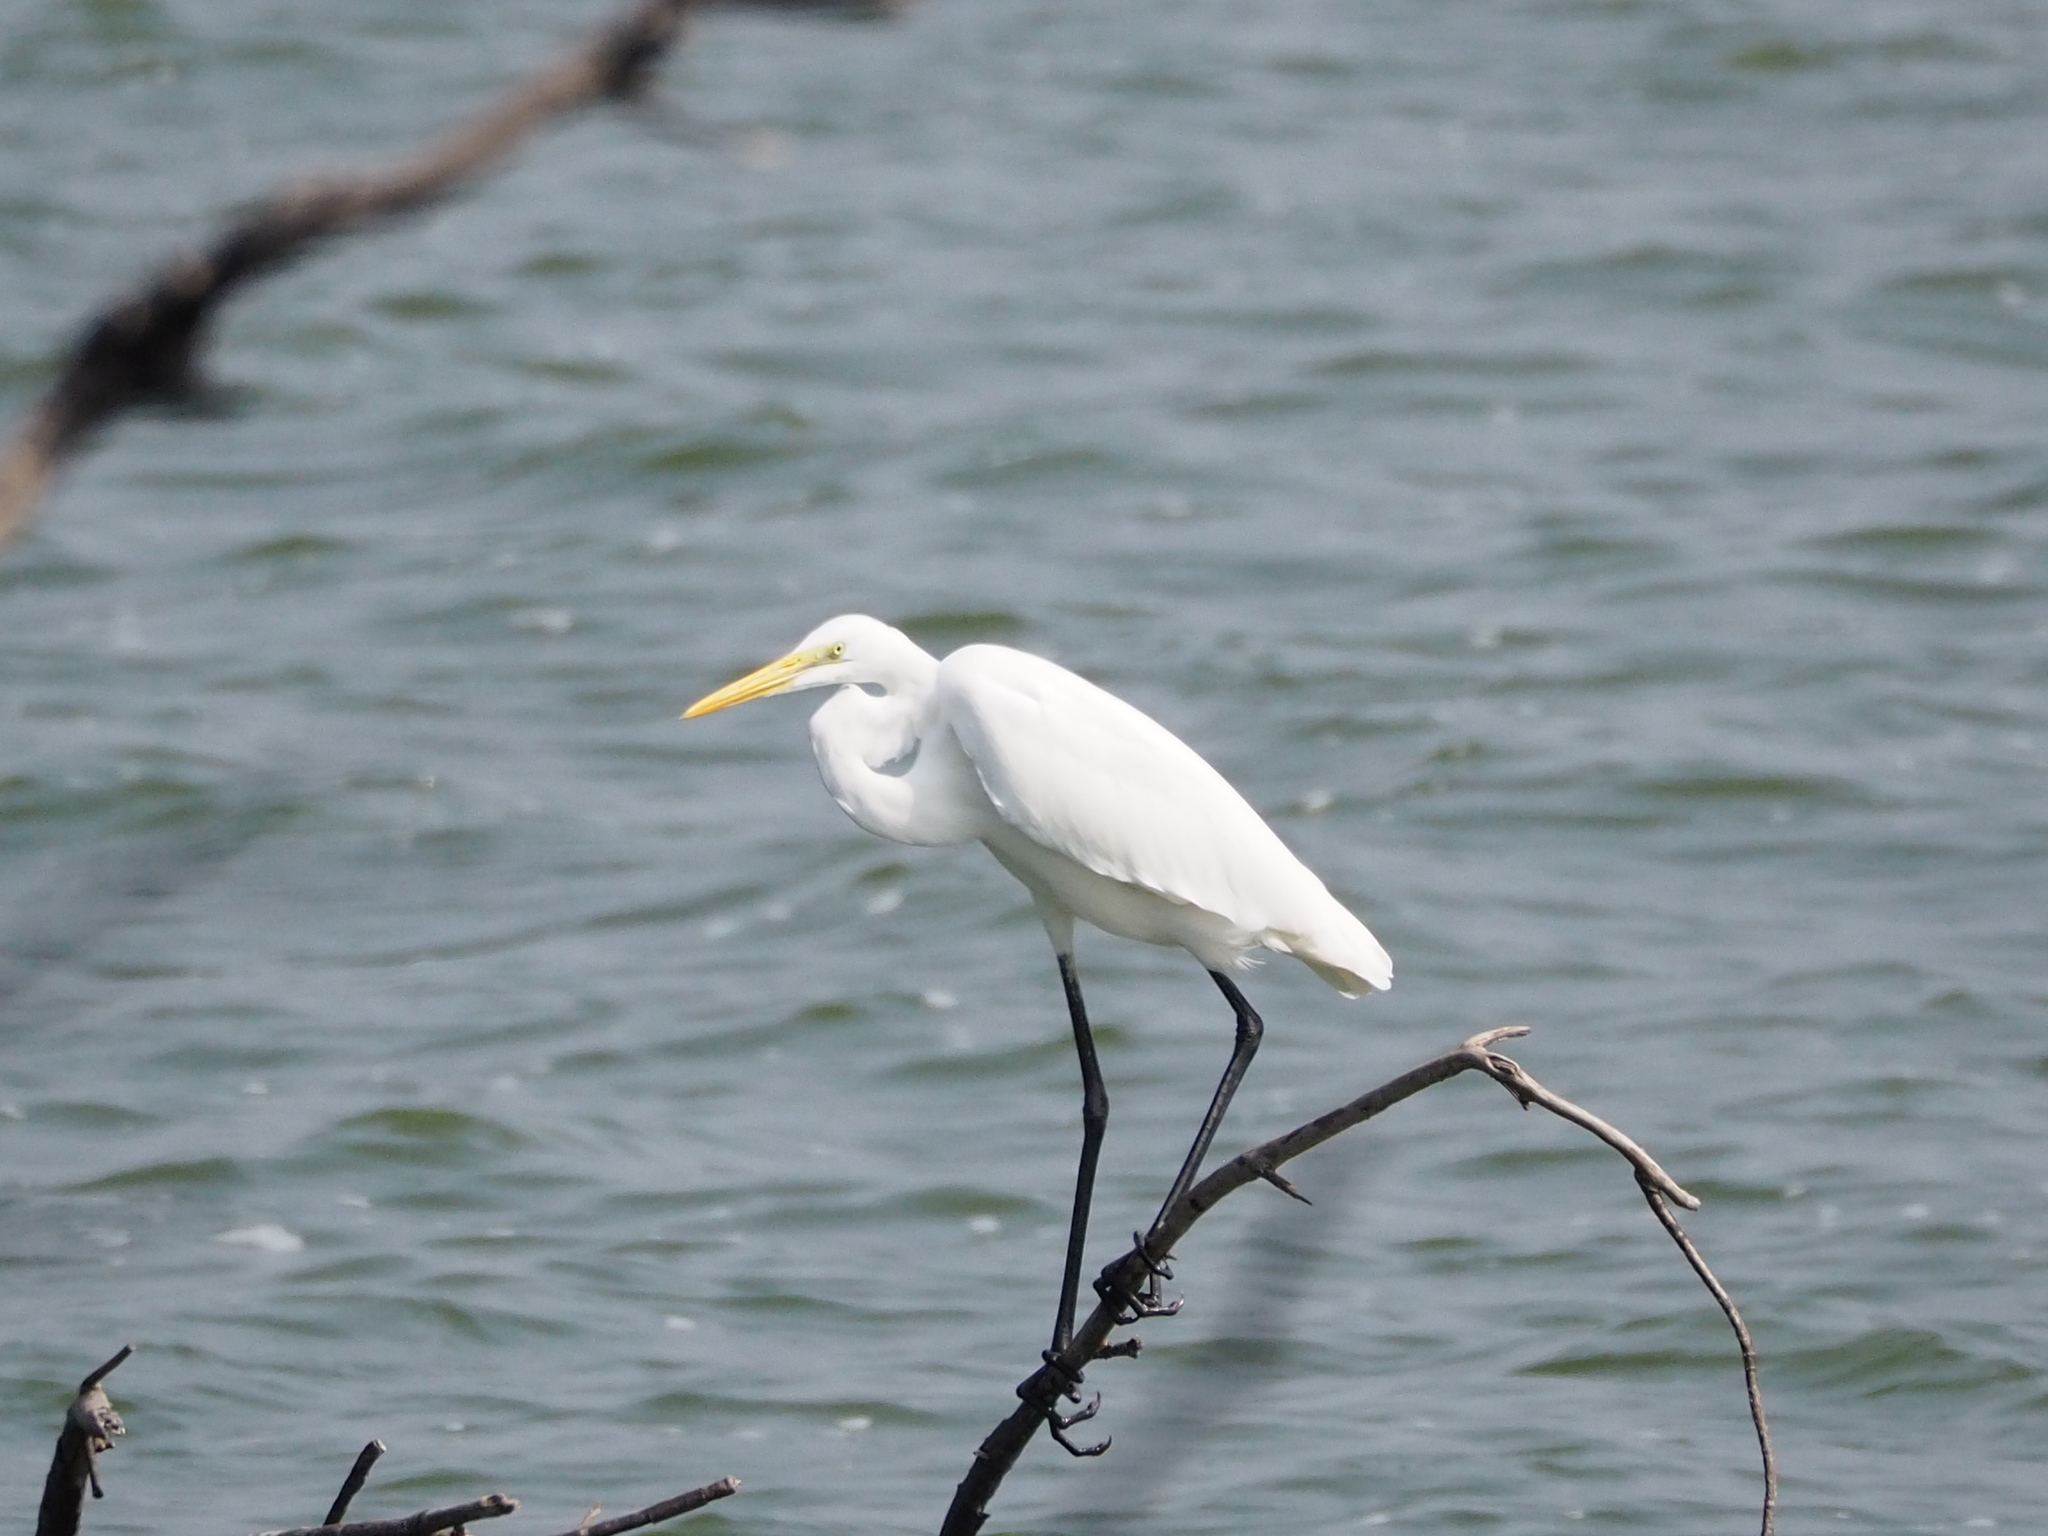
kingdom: Animalia
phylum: Chordata
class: Aves
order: Pelecaniformes
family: Ardeidae
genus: Ardea
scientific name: Ardea alba
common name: Great egret
